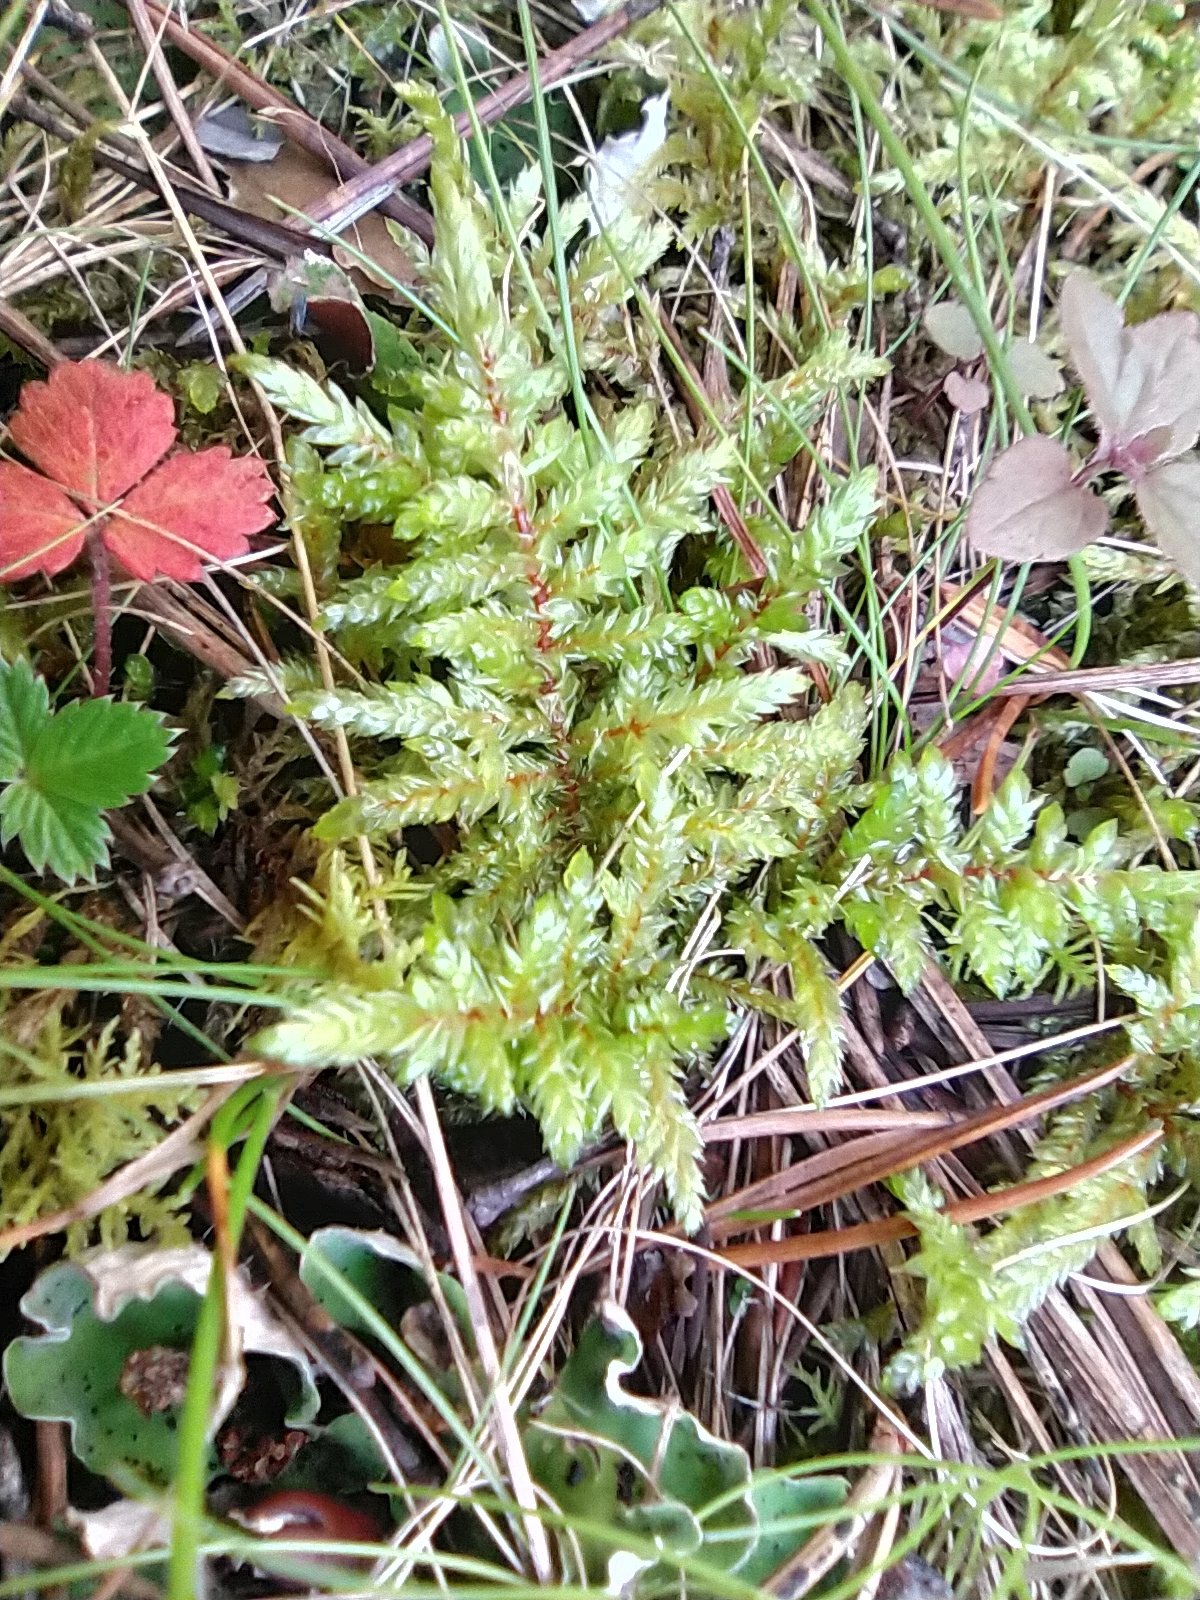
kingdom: Plantae
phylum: Bryophyta
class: Bryopsida
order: Hypnales
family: Hylocomiaceae
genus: Pleurozium
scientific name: Pleurozium schreberi
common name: Red-stemmed feather moss
